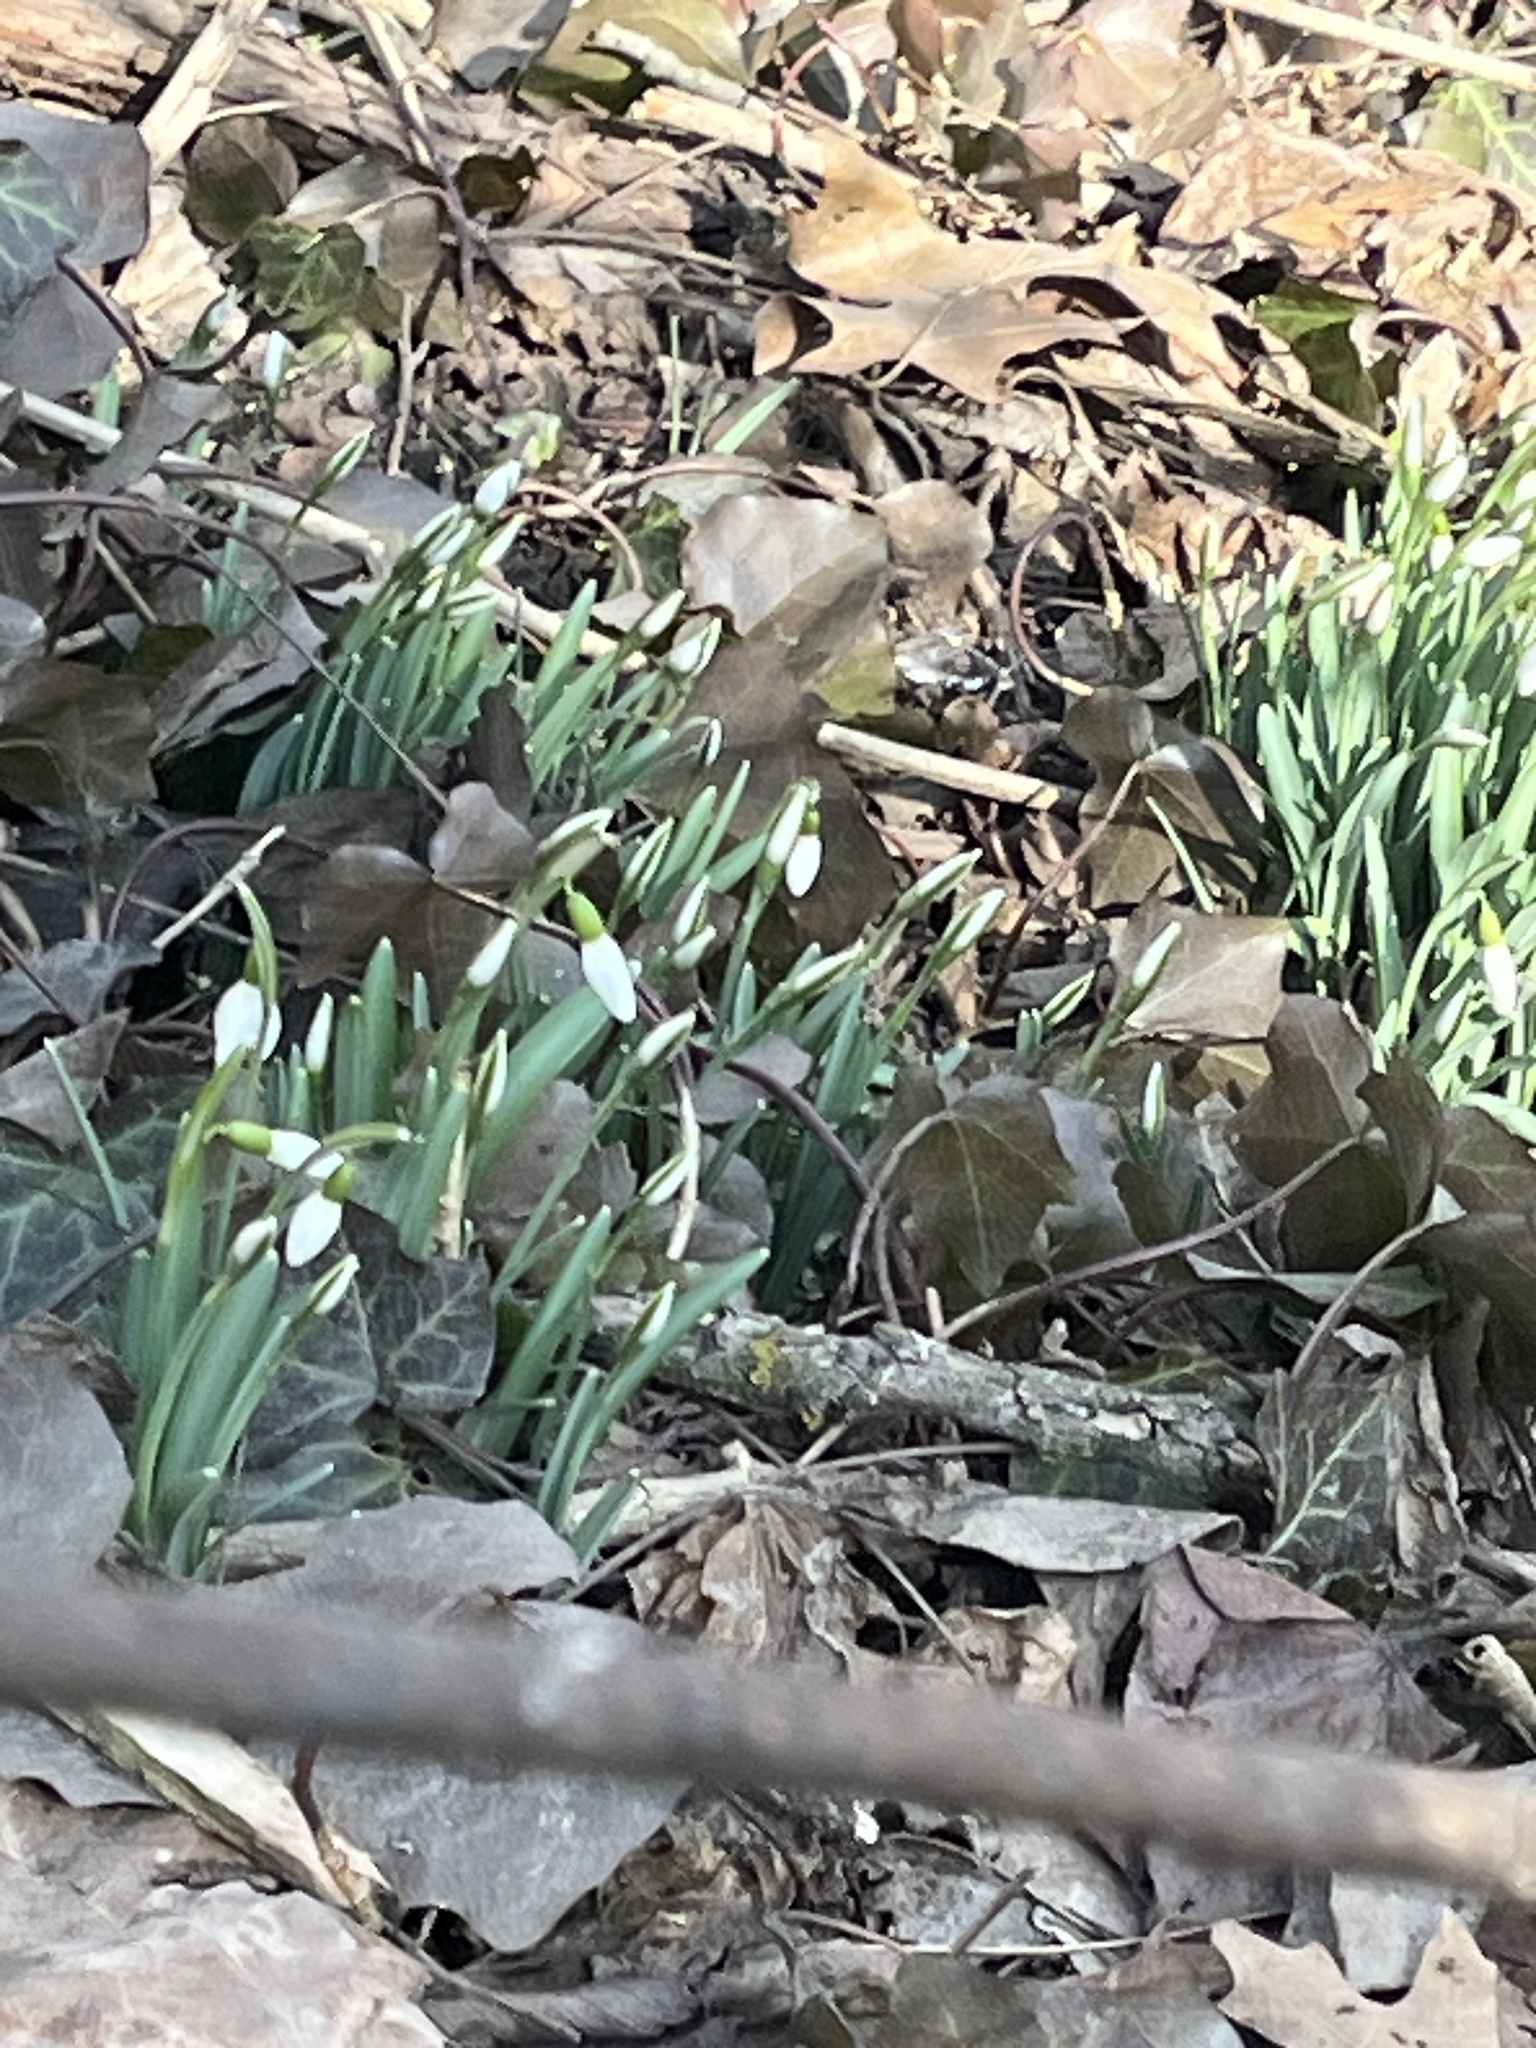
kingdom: Plantae
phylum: Tracheophyta
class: Liliopsida
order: Asparagales
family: Amaryllidaceae
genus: Galanthus
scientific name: Galanthus nivalis
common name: Snowdrop
